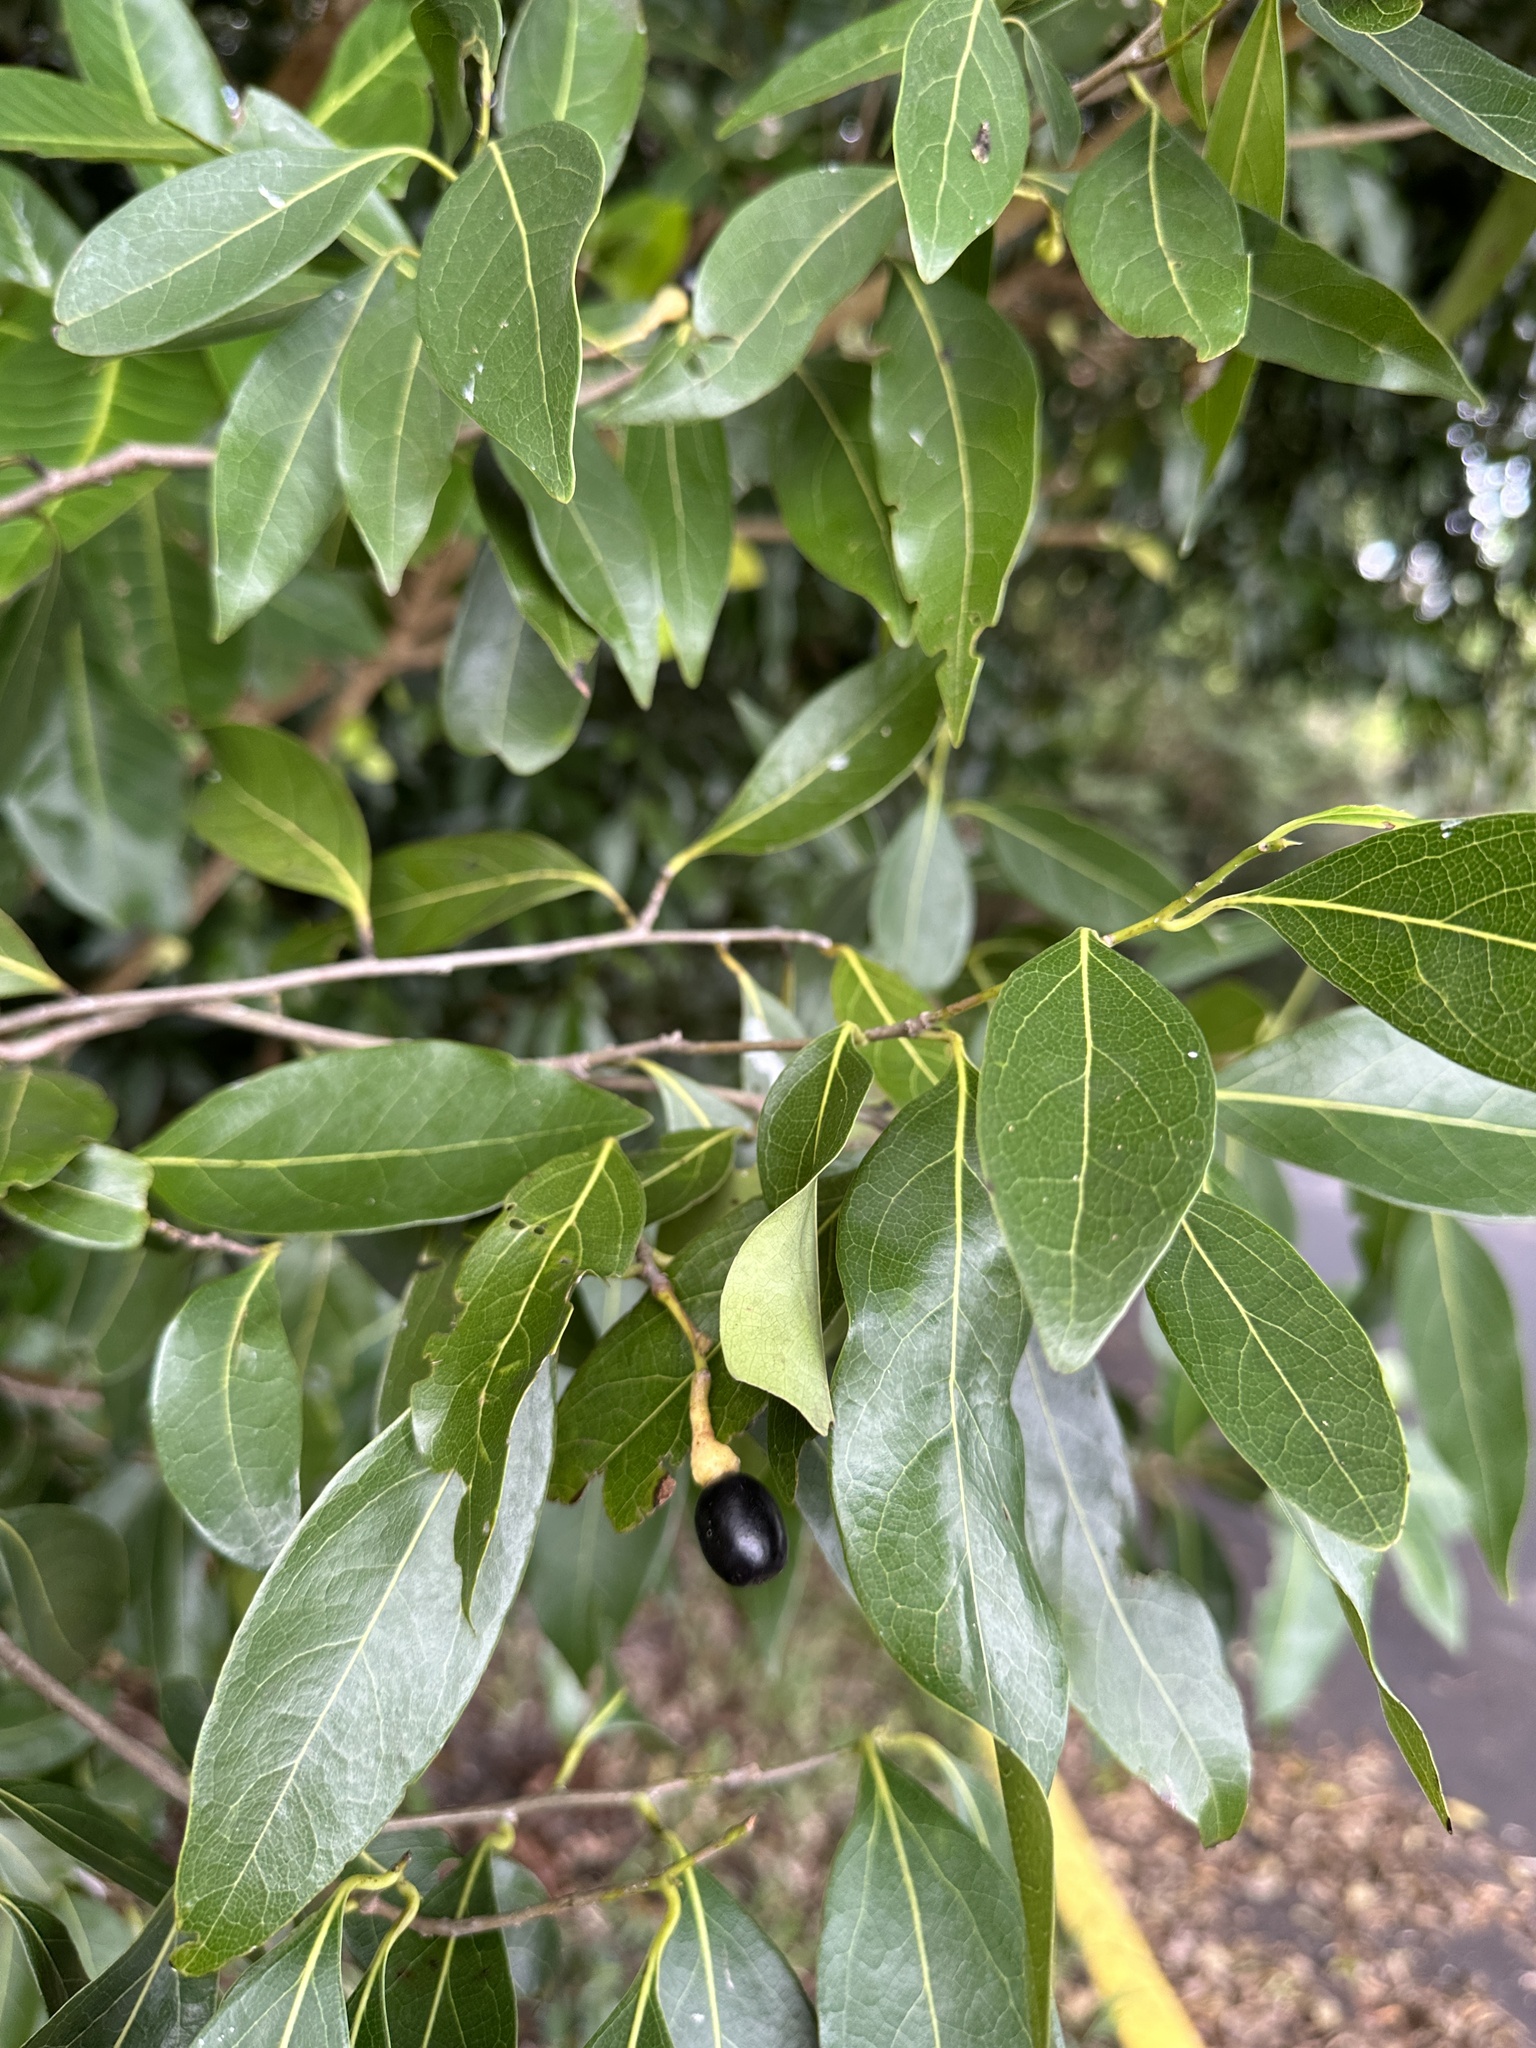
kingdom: Plantae
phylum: Tracheophyta
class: Magnoliopsida
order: Laurales
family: Lauraceae
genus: Damburneya
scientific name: Damburneya
